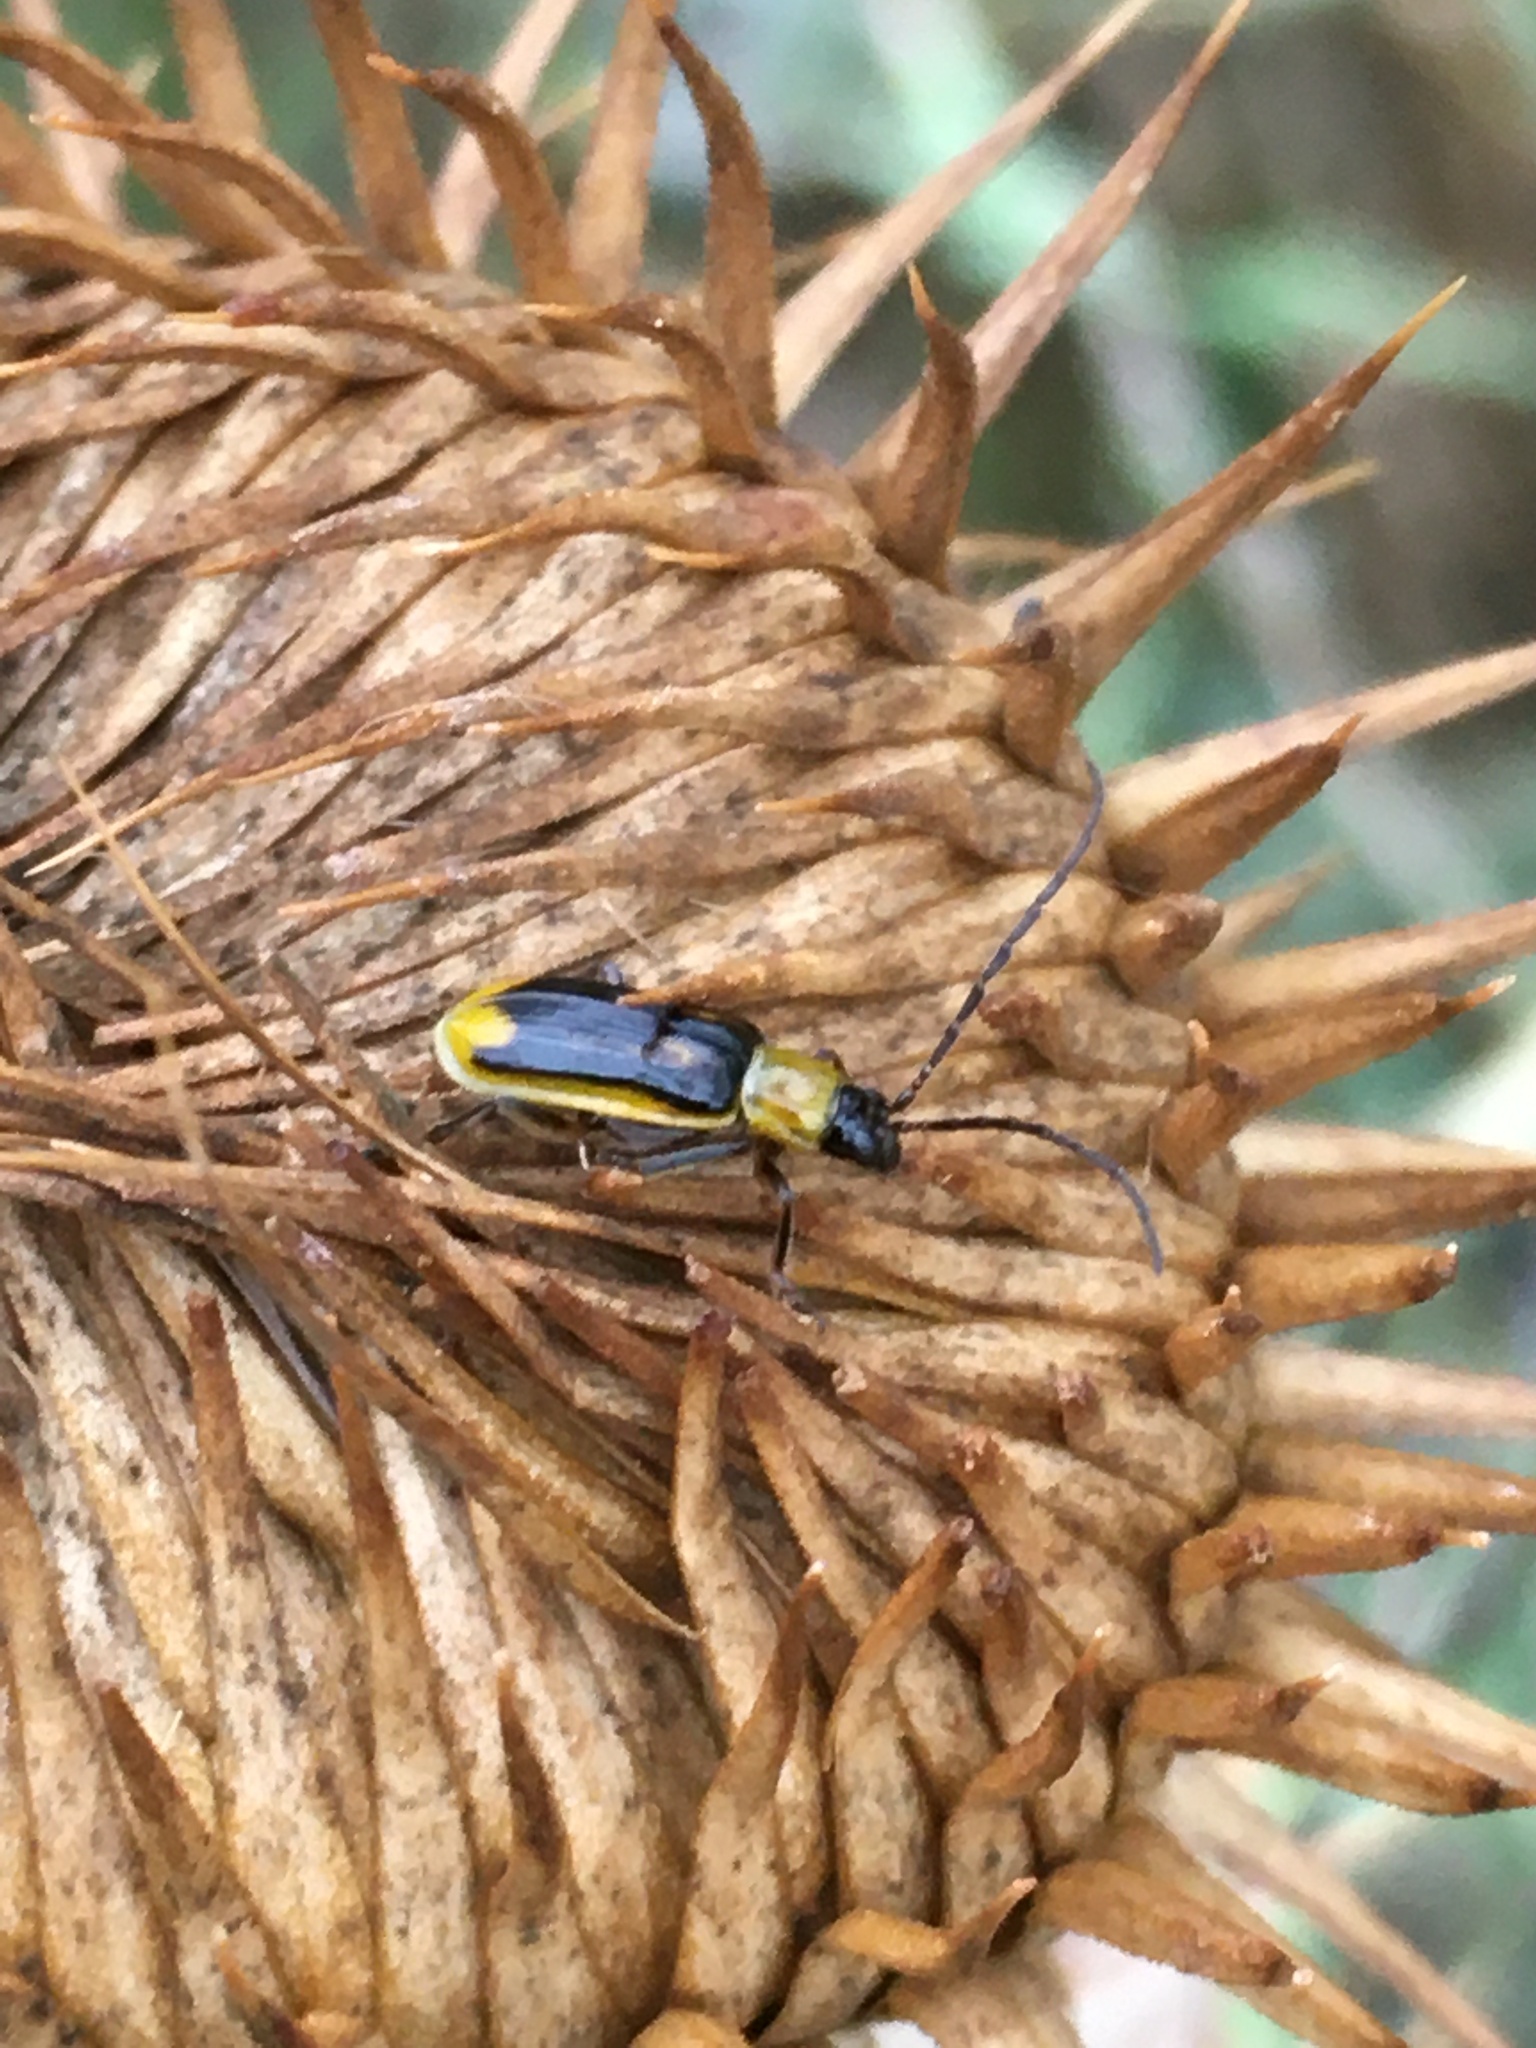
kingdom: Animalia
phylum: Arthropoda
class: Insecta
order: Coleoptera
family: Chrysomelidae
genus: Diabrotica
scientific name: Diabrotica virgifera
